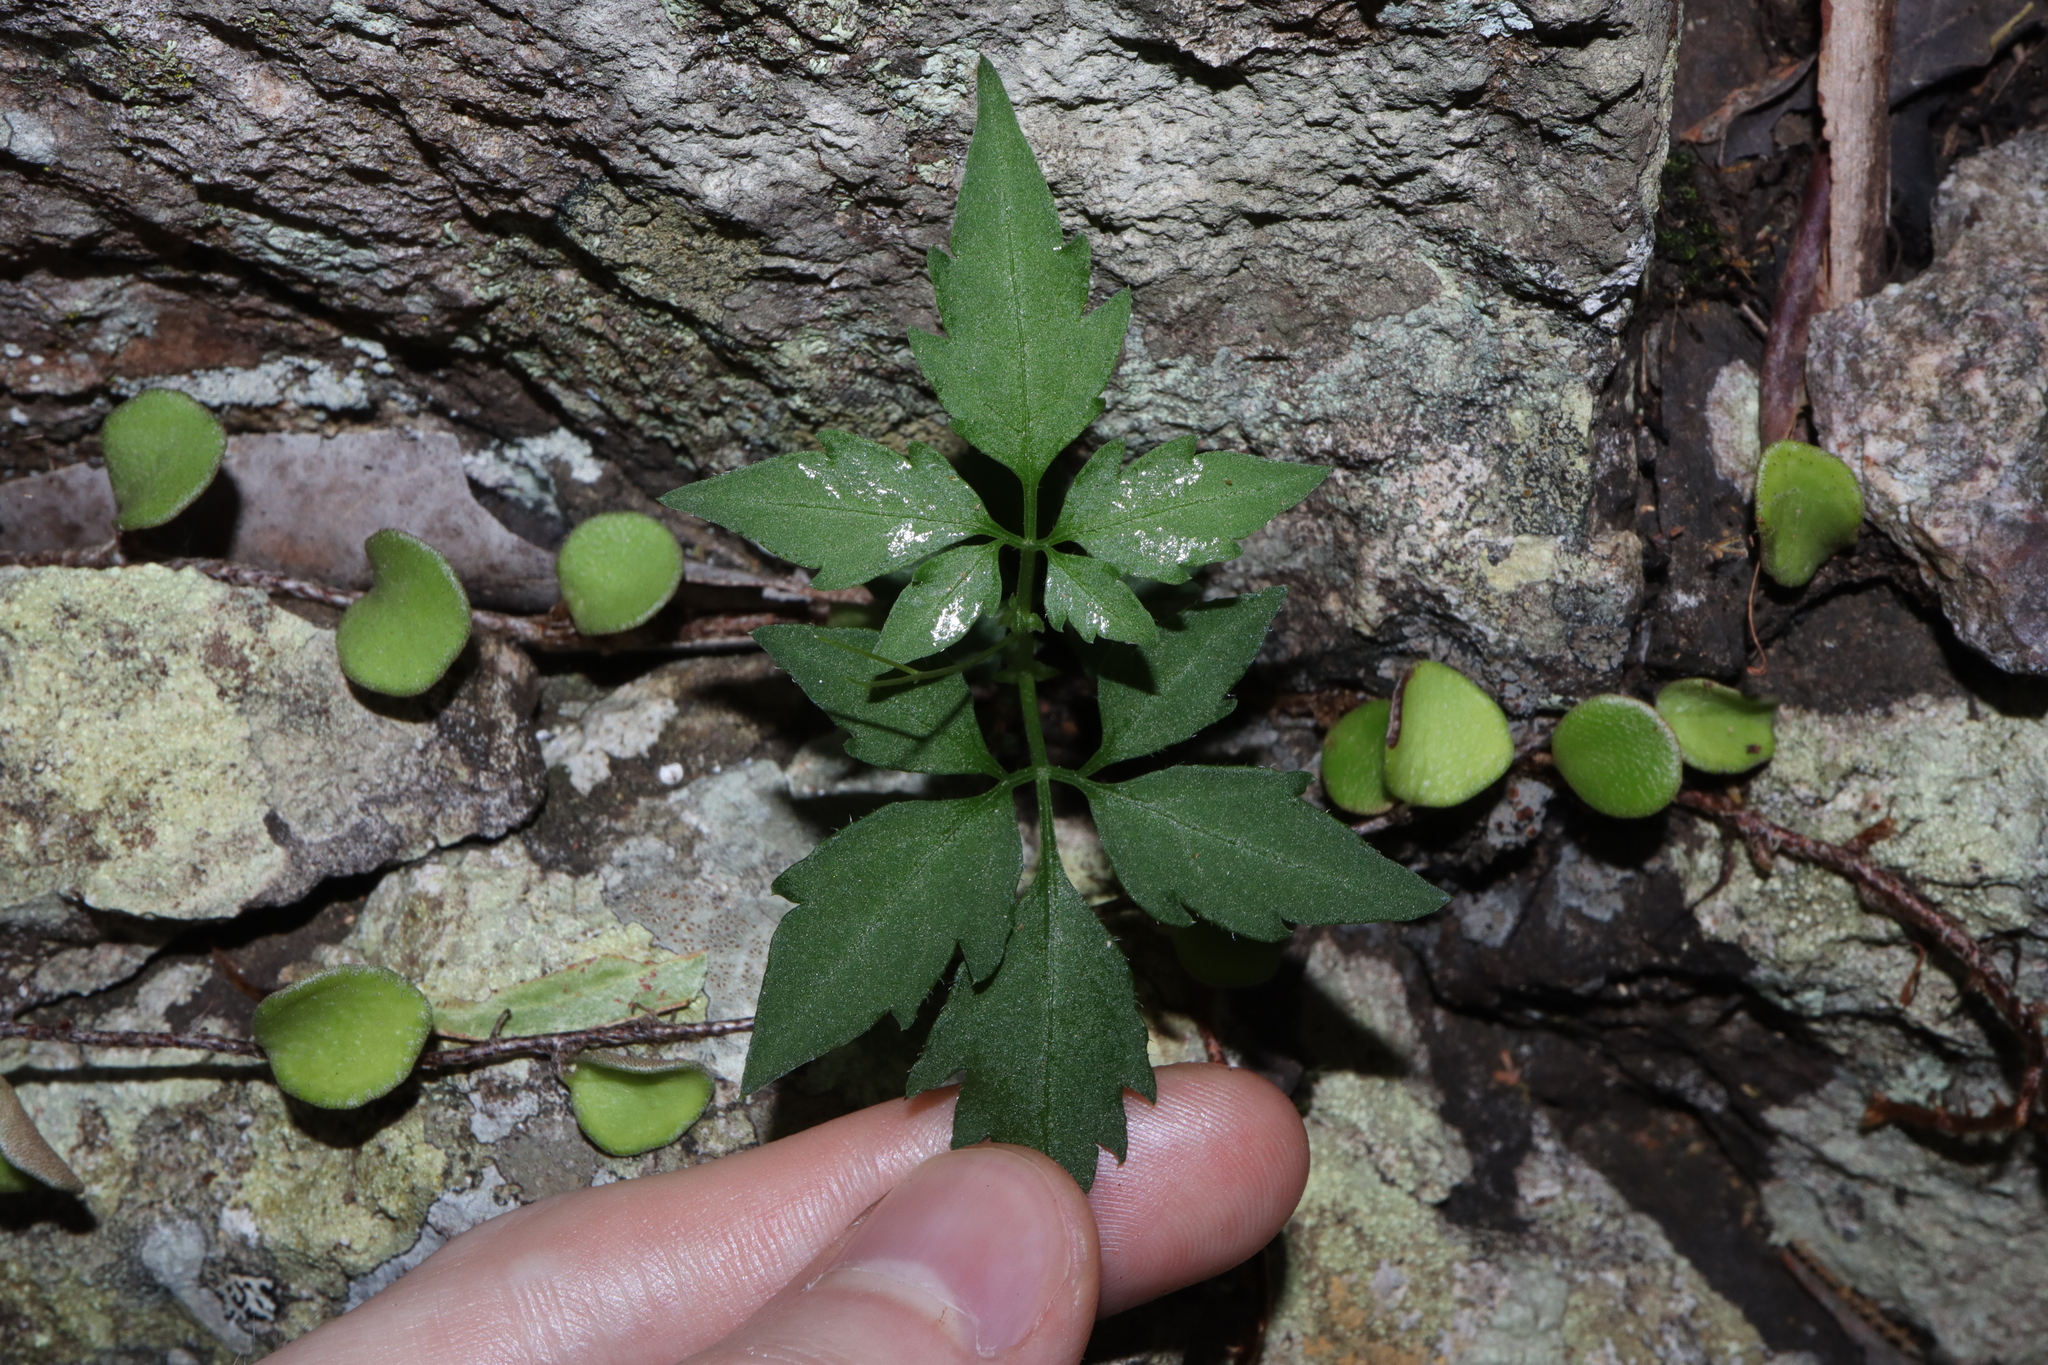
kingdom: Plantae
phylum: Tracheophyta
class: Magnoliopsida
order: Vitales
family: Vitaceae
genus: Causonis
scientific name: Causonis clematidea
